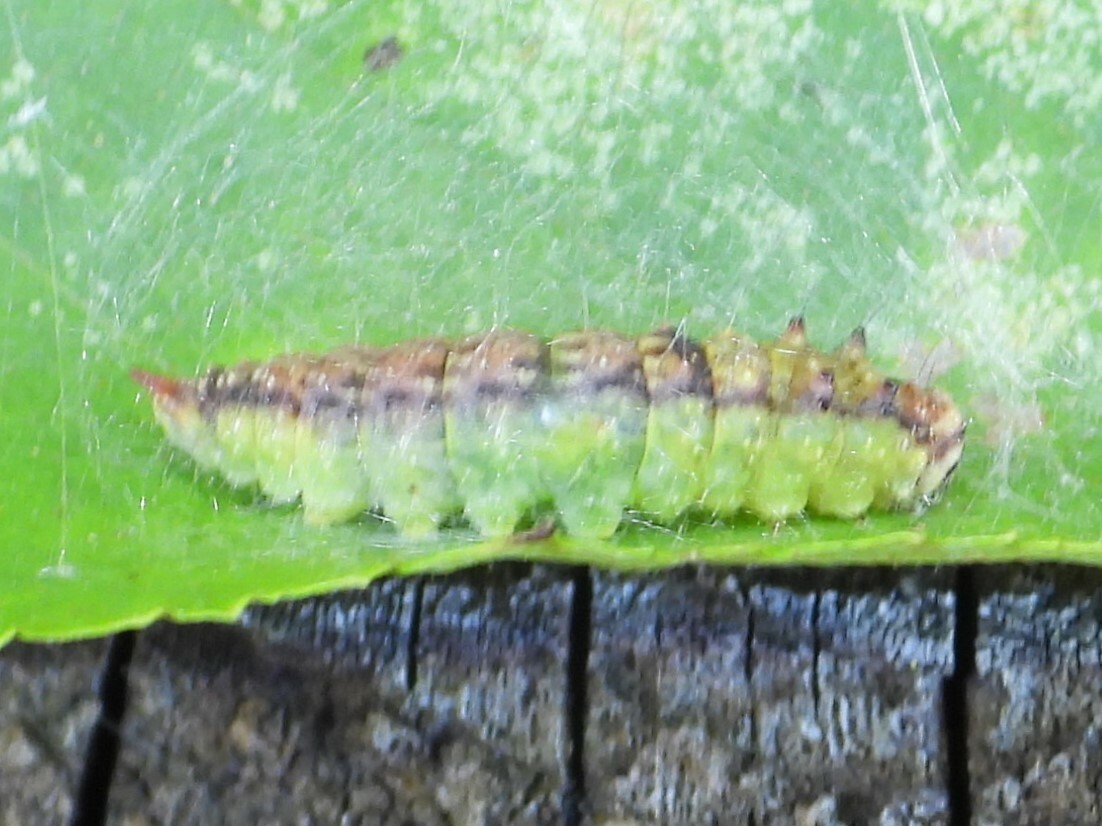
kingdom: Animalia
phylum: Arthropoda
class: Insecta
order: Lepidoptera
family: Drepanidae
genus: Drepana
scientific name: Drepana arcuata
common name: Arched hooktip moth
